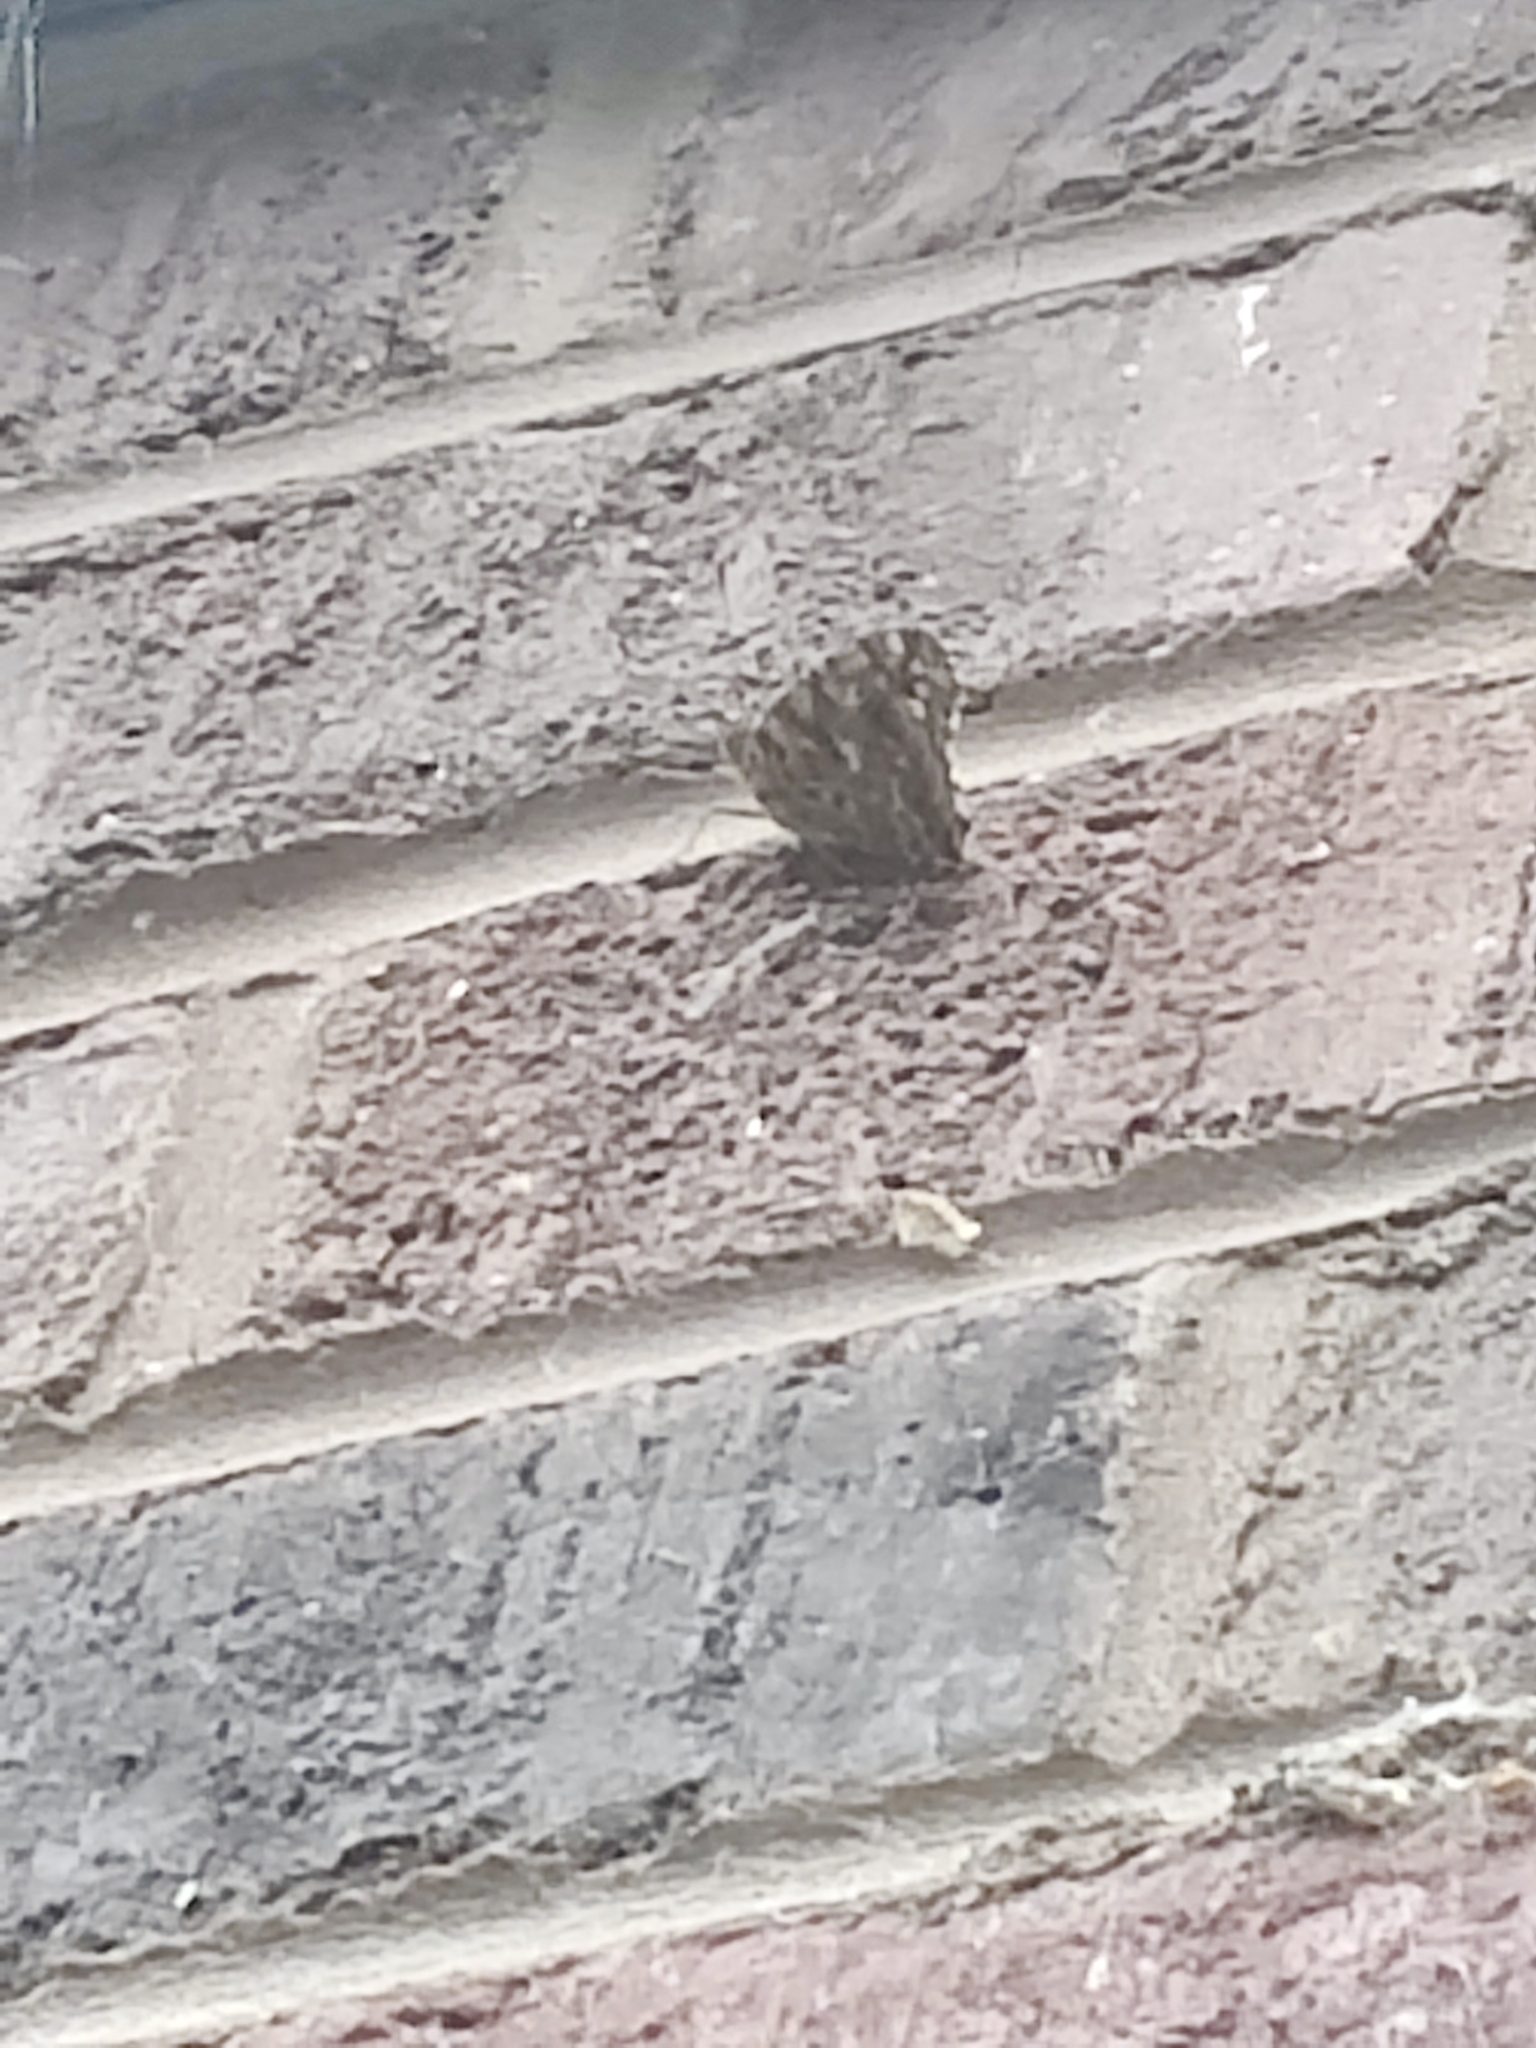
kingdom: Animalia
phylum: Arthropoda
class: Insecta
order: Lepidoptera
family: Nymphalidae
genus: Vanessa
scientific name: Vanessa cardui
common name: Painted lady
